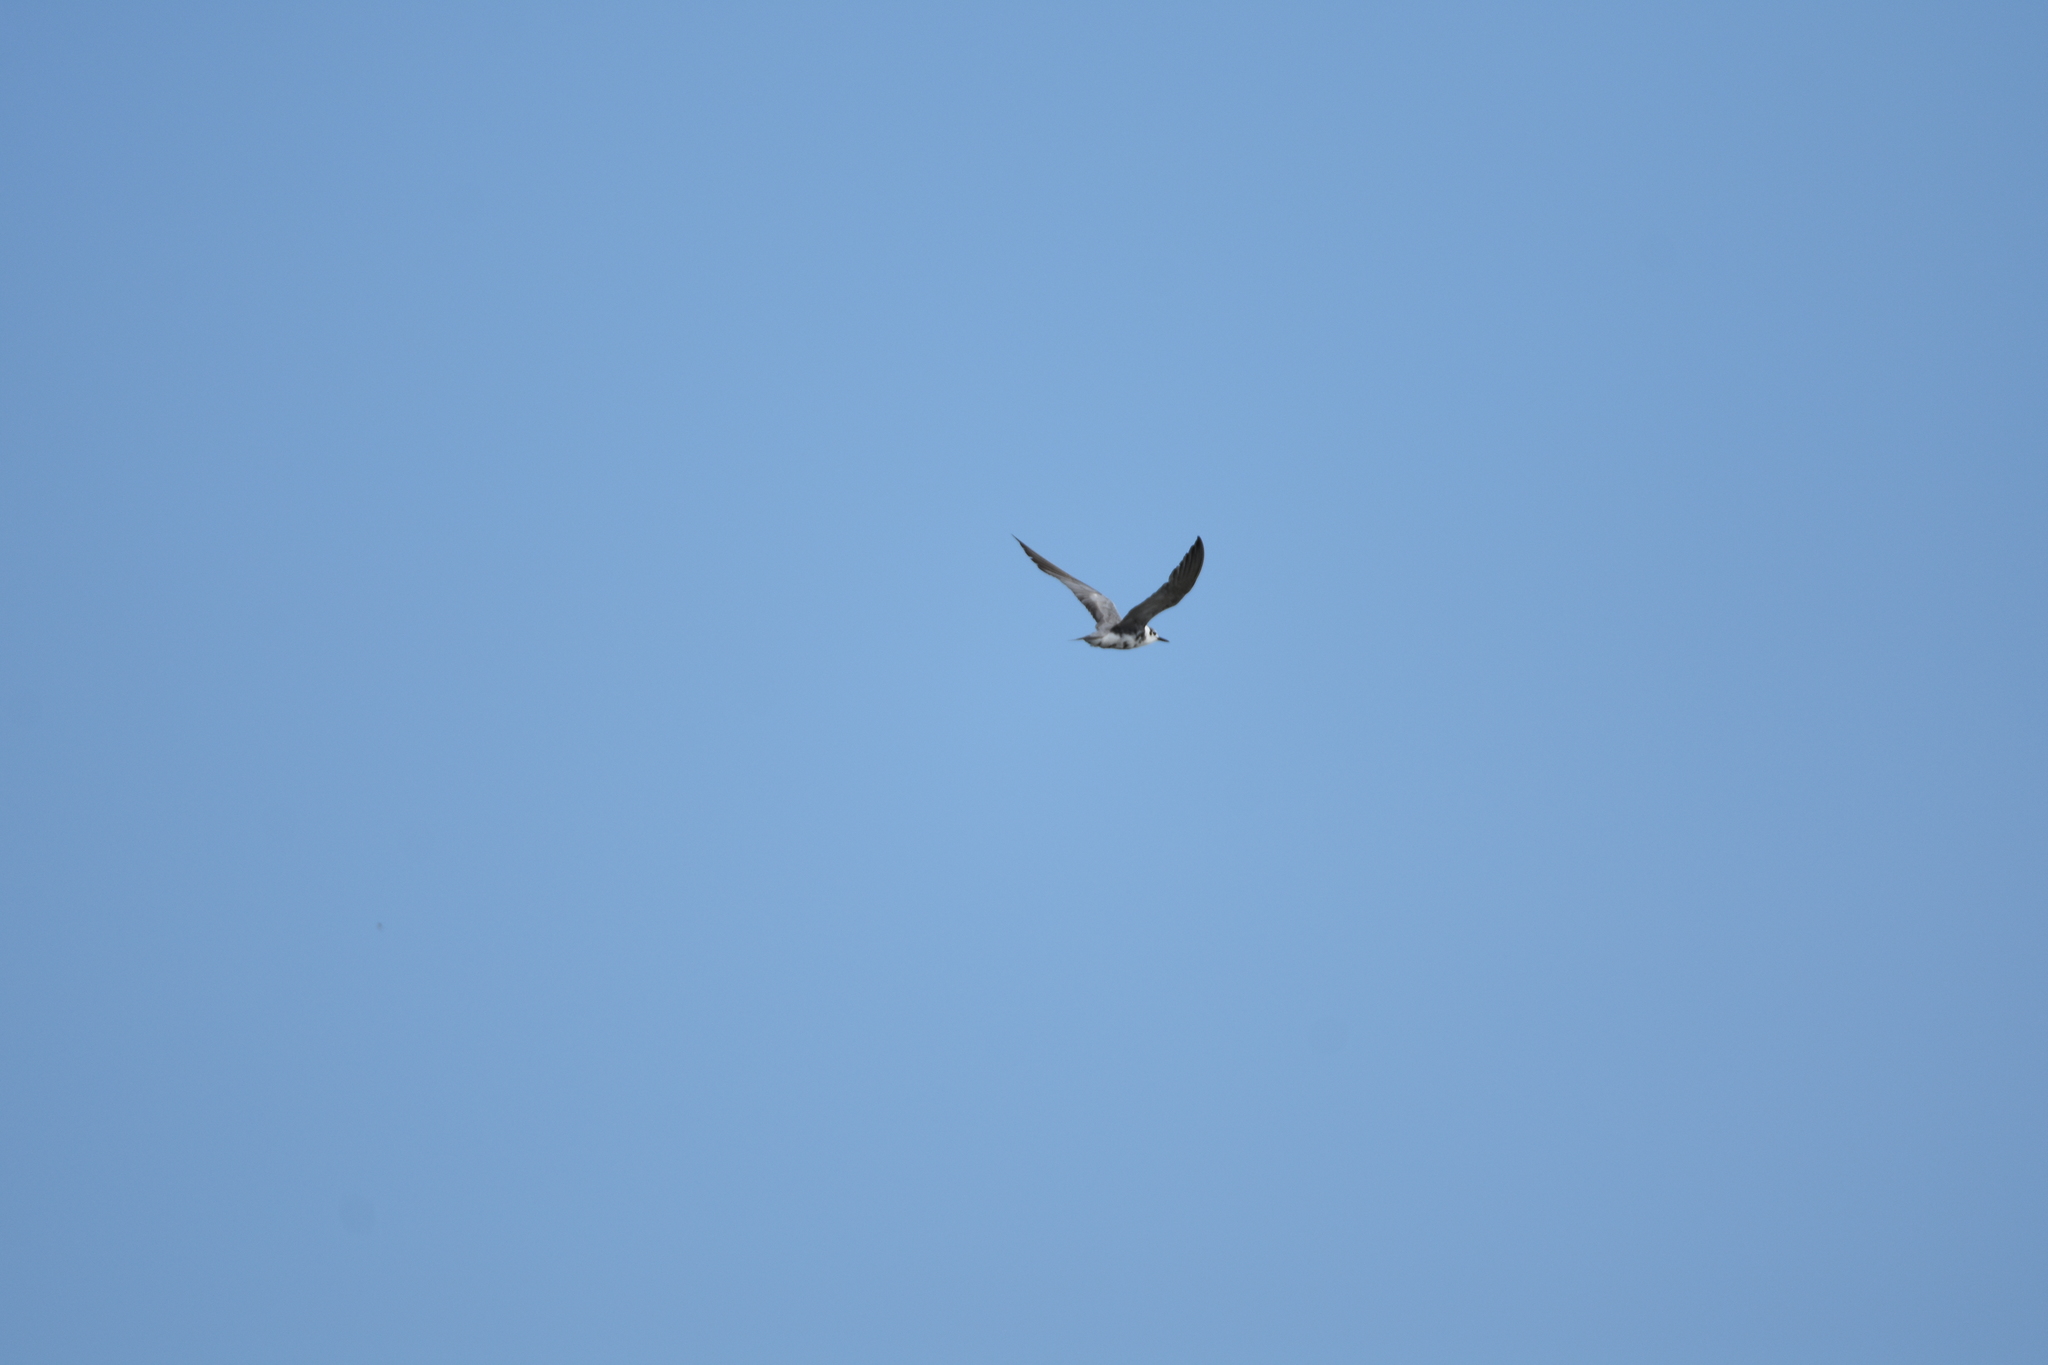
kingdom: Animalia
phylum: Chordata
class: Aves
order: Charadriiformes
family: Laridae
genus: Chlidonias
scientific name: Chlidonias niger
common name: Black tern
